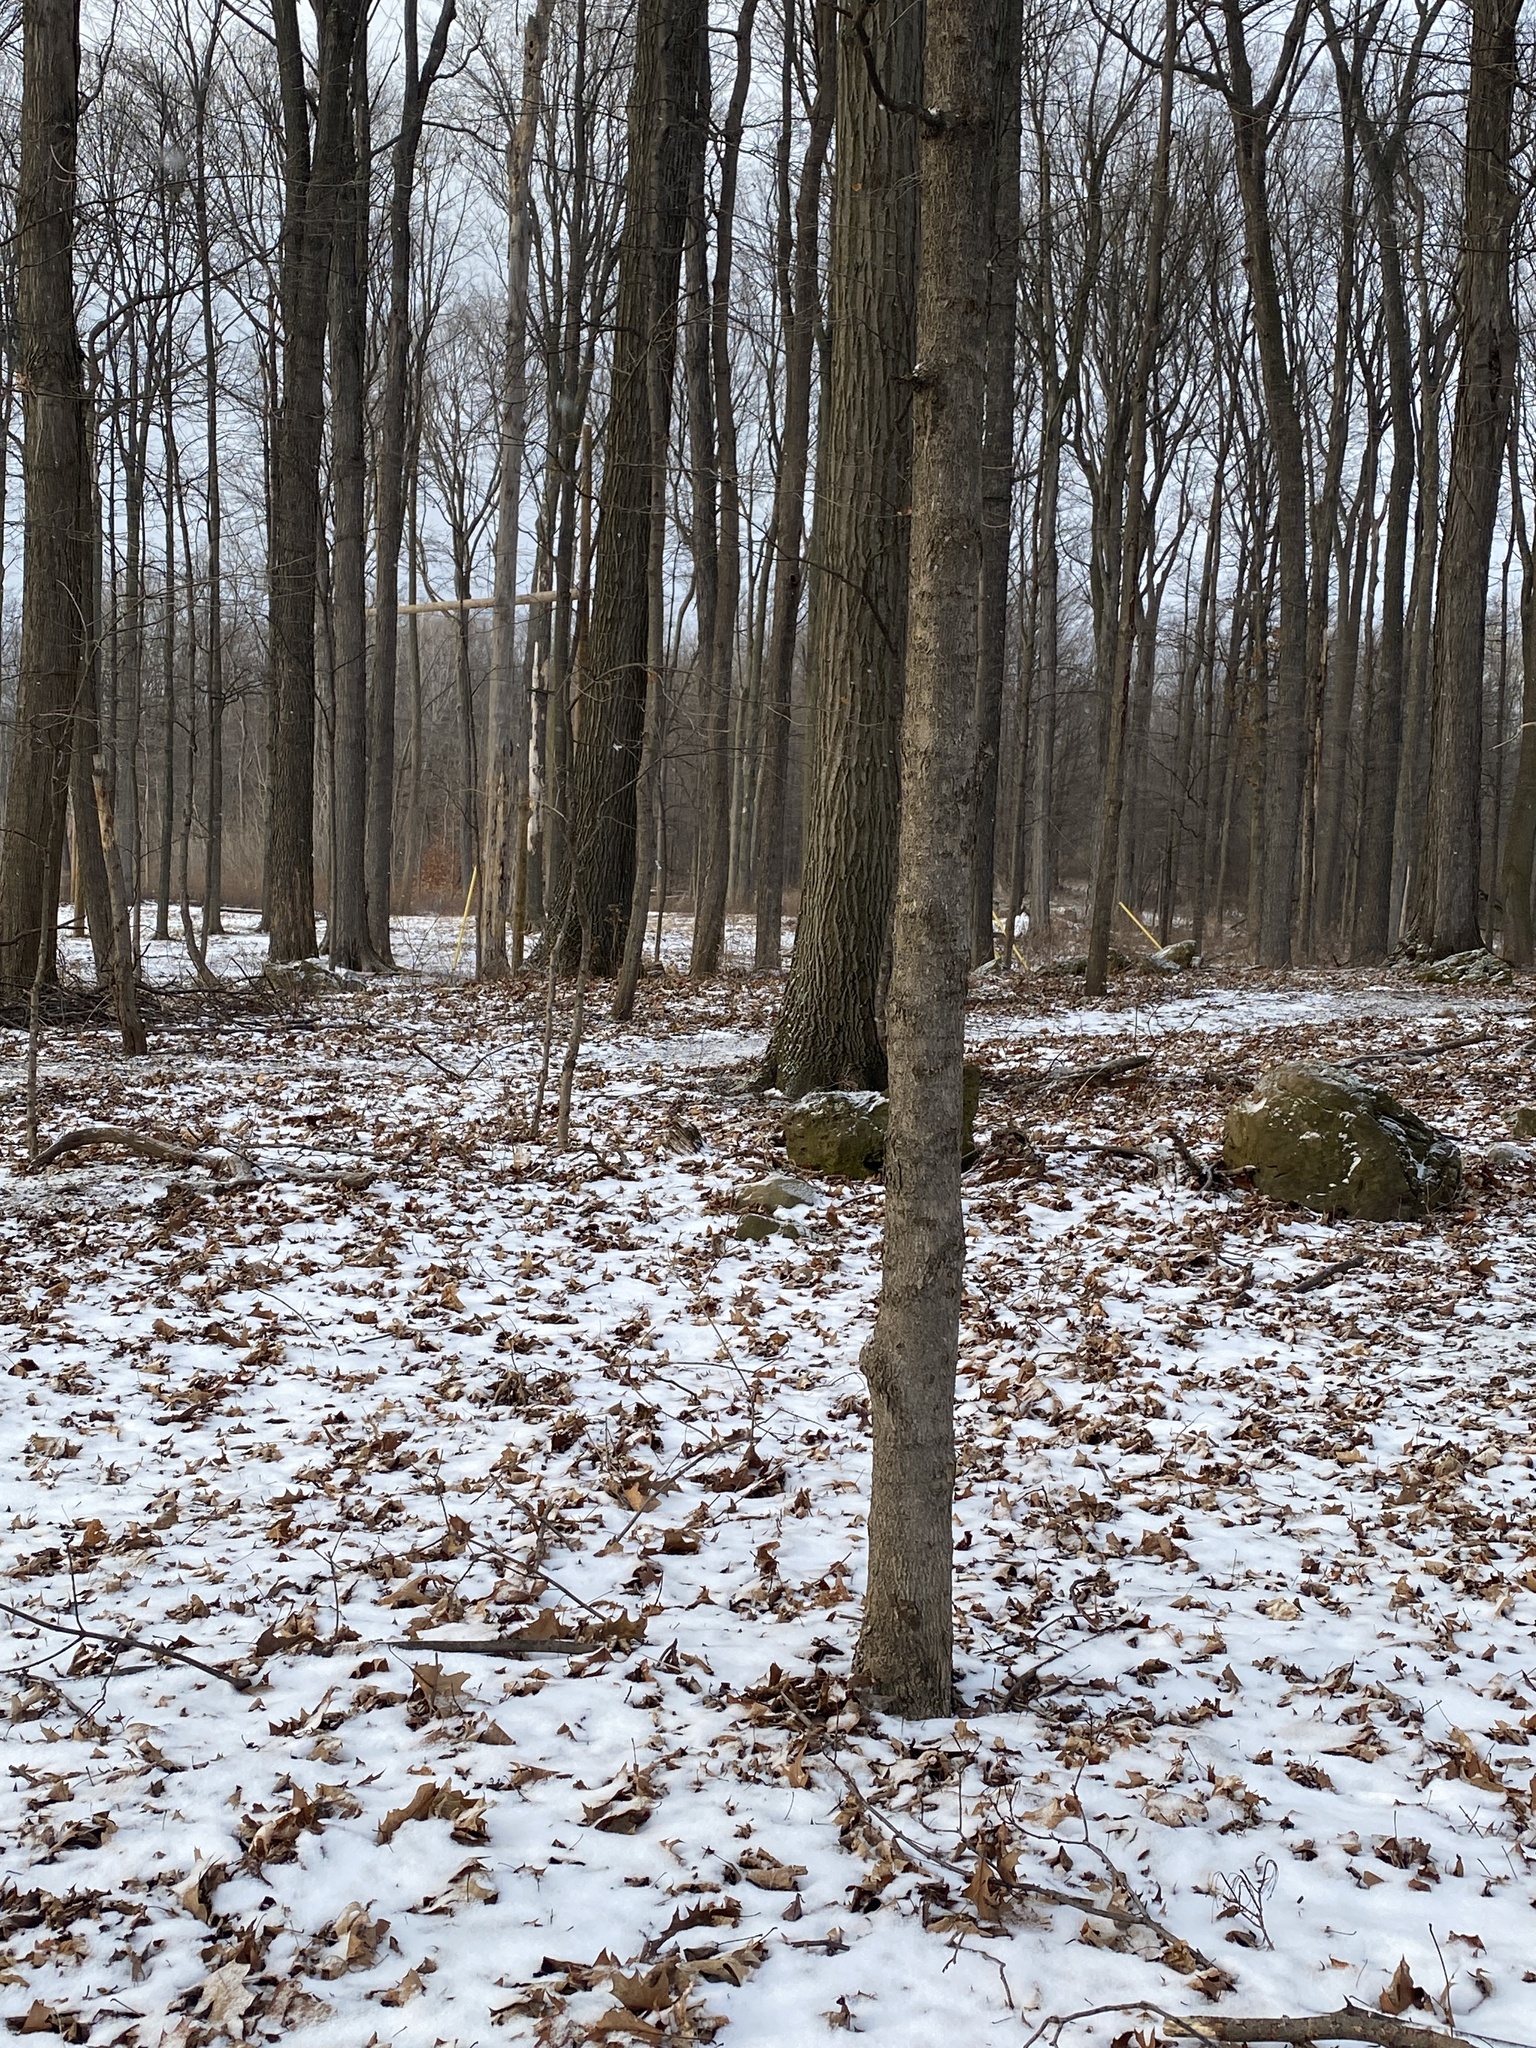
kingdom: Plantae
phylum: Tracheophyta
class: Magnoliopsida
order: Fagales
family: Fagaceae
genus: Quercus
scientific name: Quercus rubra
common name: Red oak
